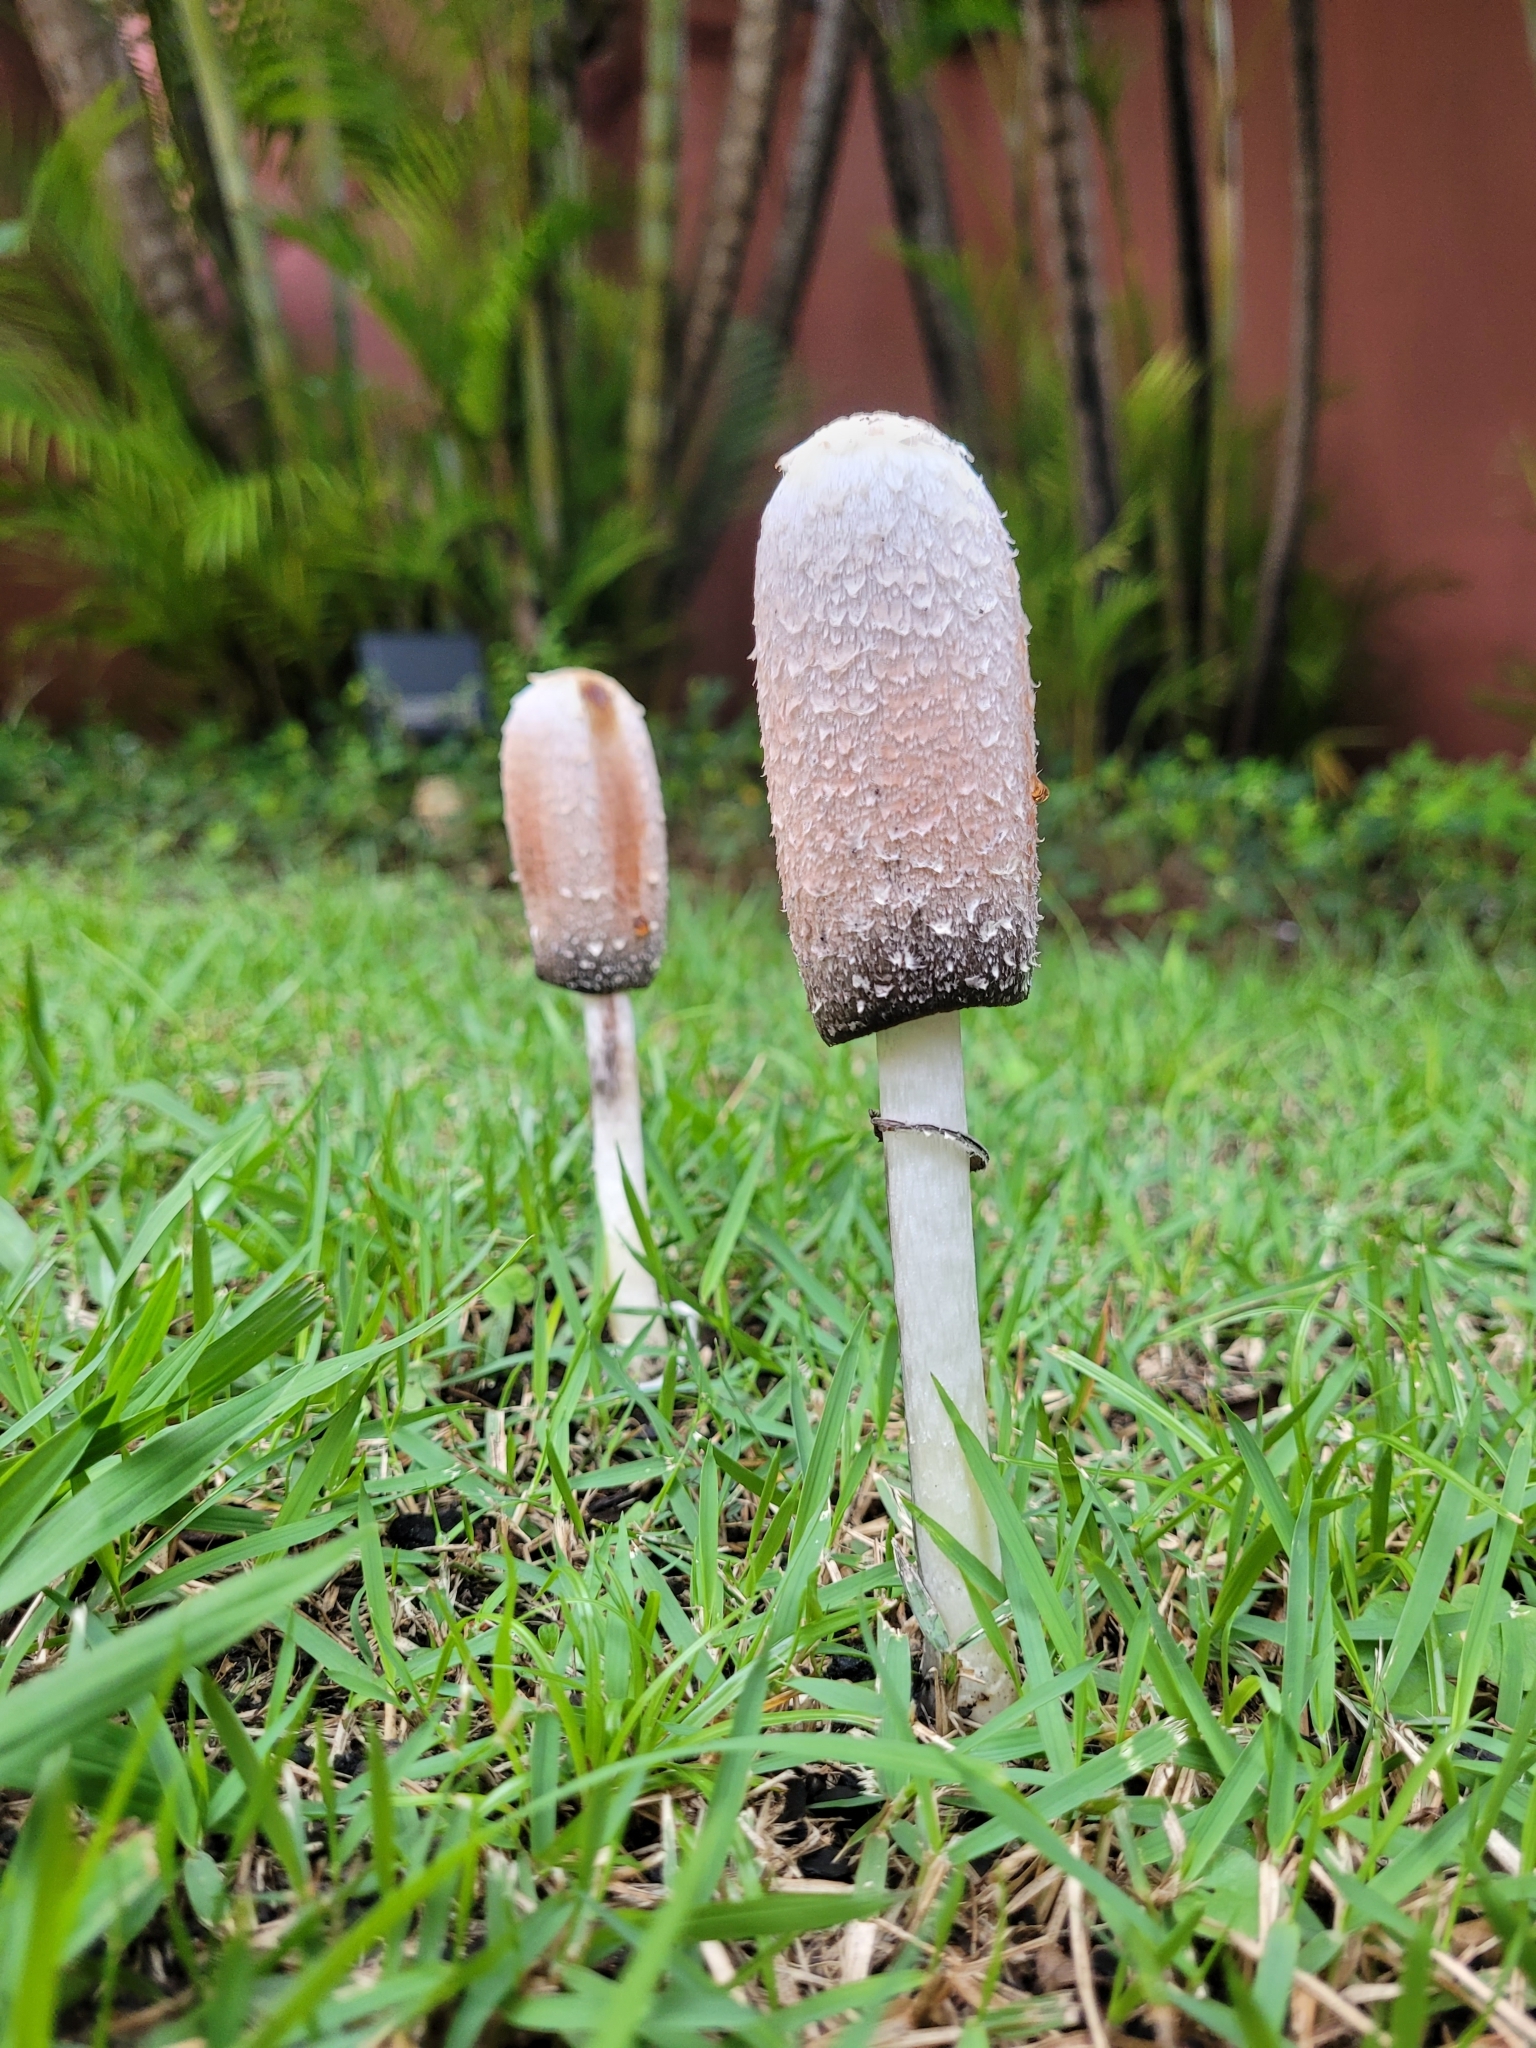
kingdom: Fungi
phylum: Basidiomycota
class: Agaricomycetes
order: Agaricales
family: Agaricaceae
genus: Coprinus
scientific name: Coprinus comatus
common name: Lawyer's wig
